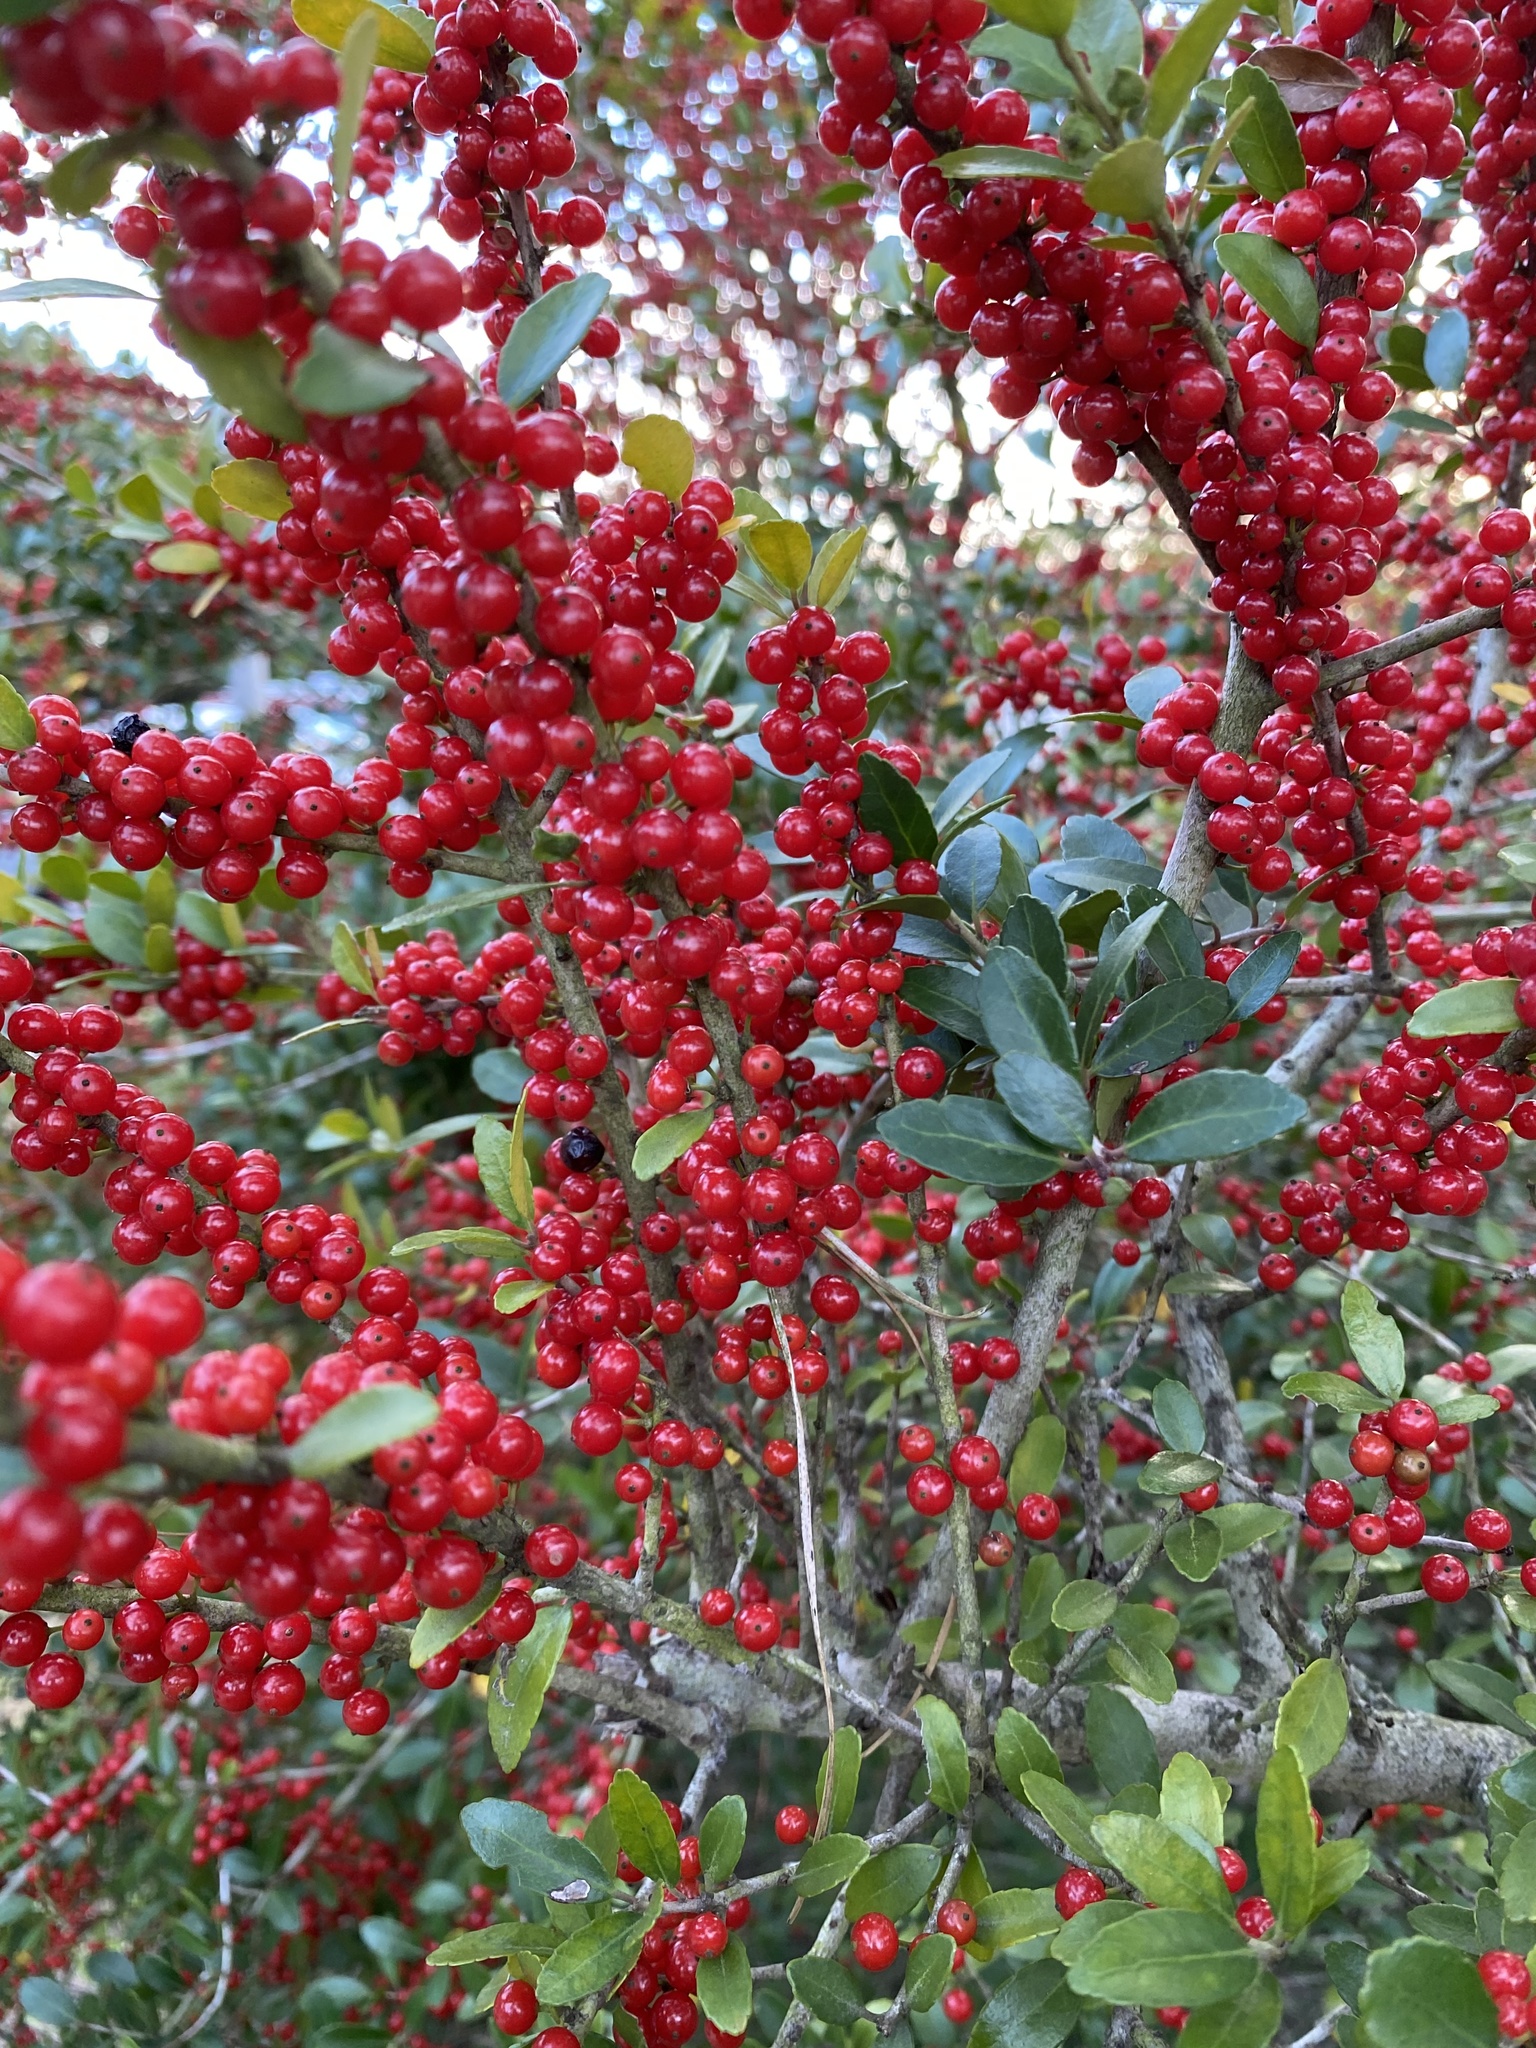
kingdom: Plantae
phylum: Tracheophyta
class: Magnoliopsida
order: Aquifoliales
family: Aquifoliaceae
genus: Ilex
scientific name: Ilex vomitoria
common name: Yaupon holly
